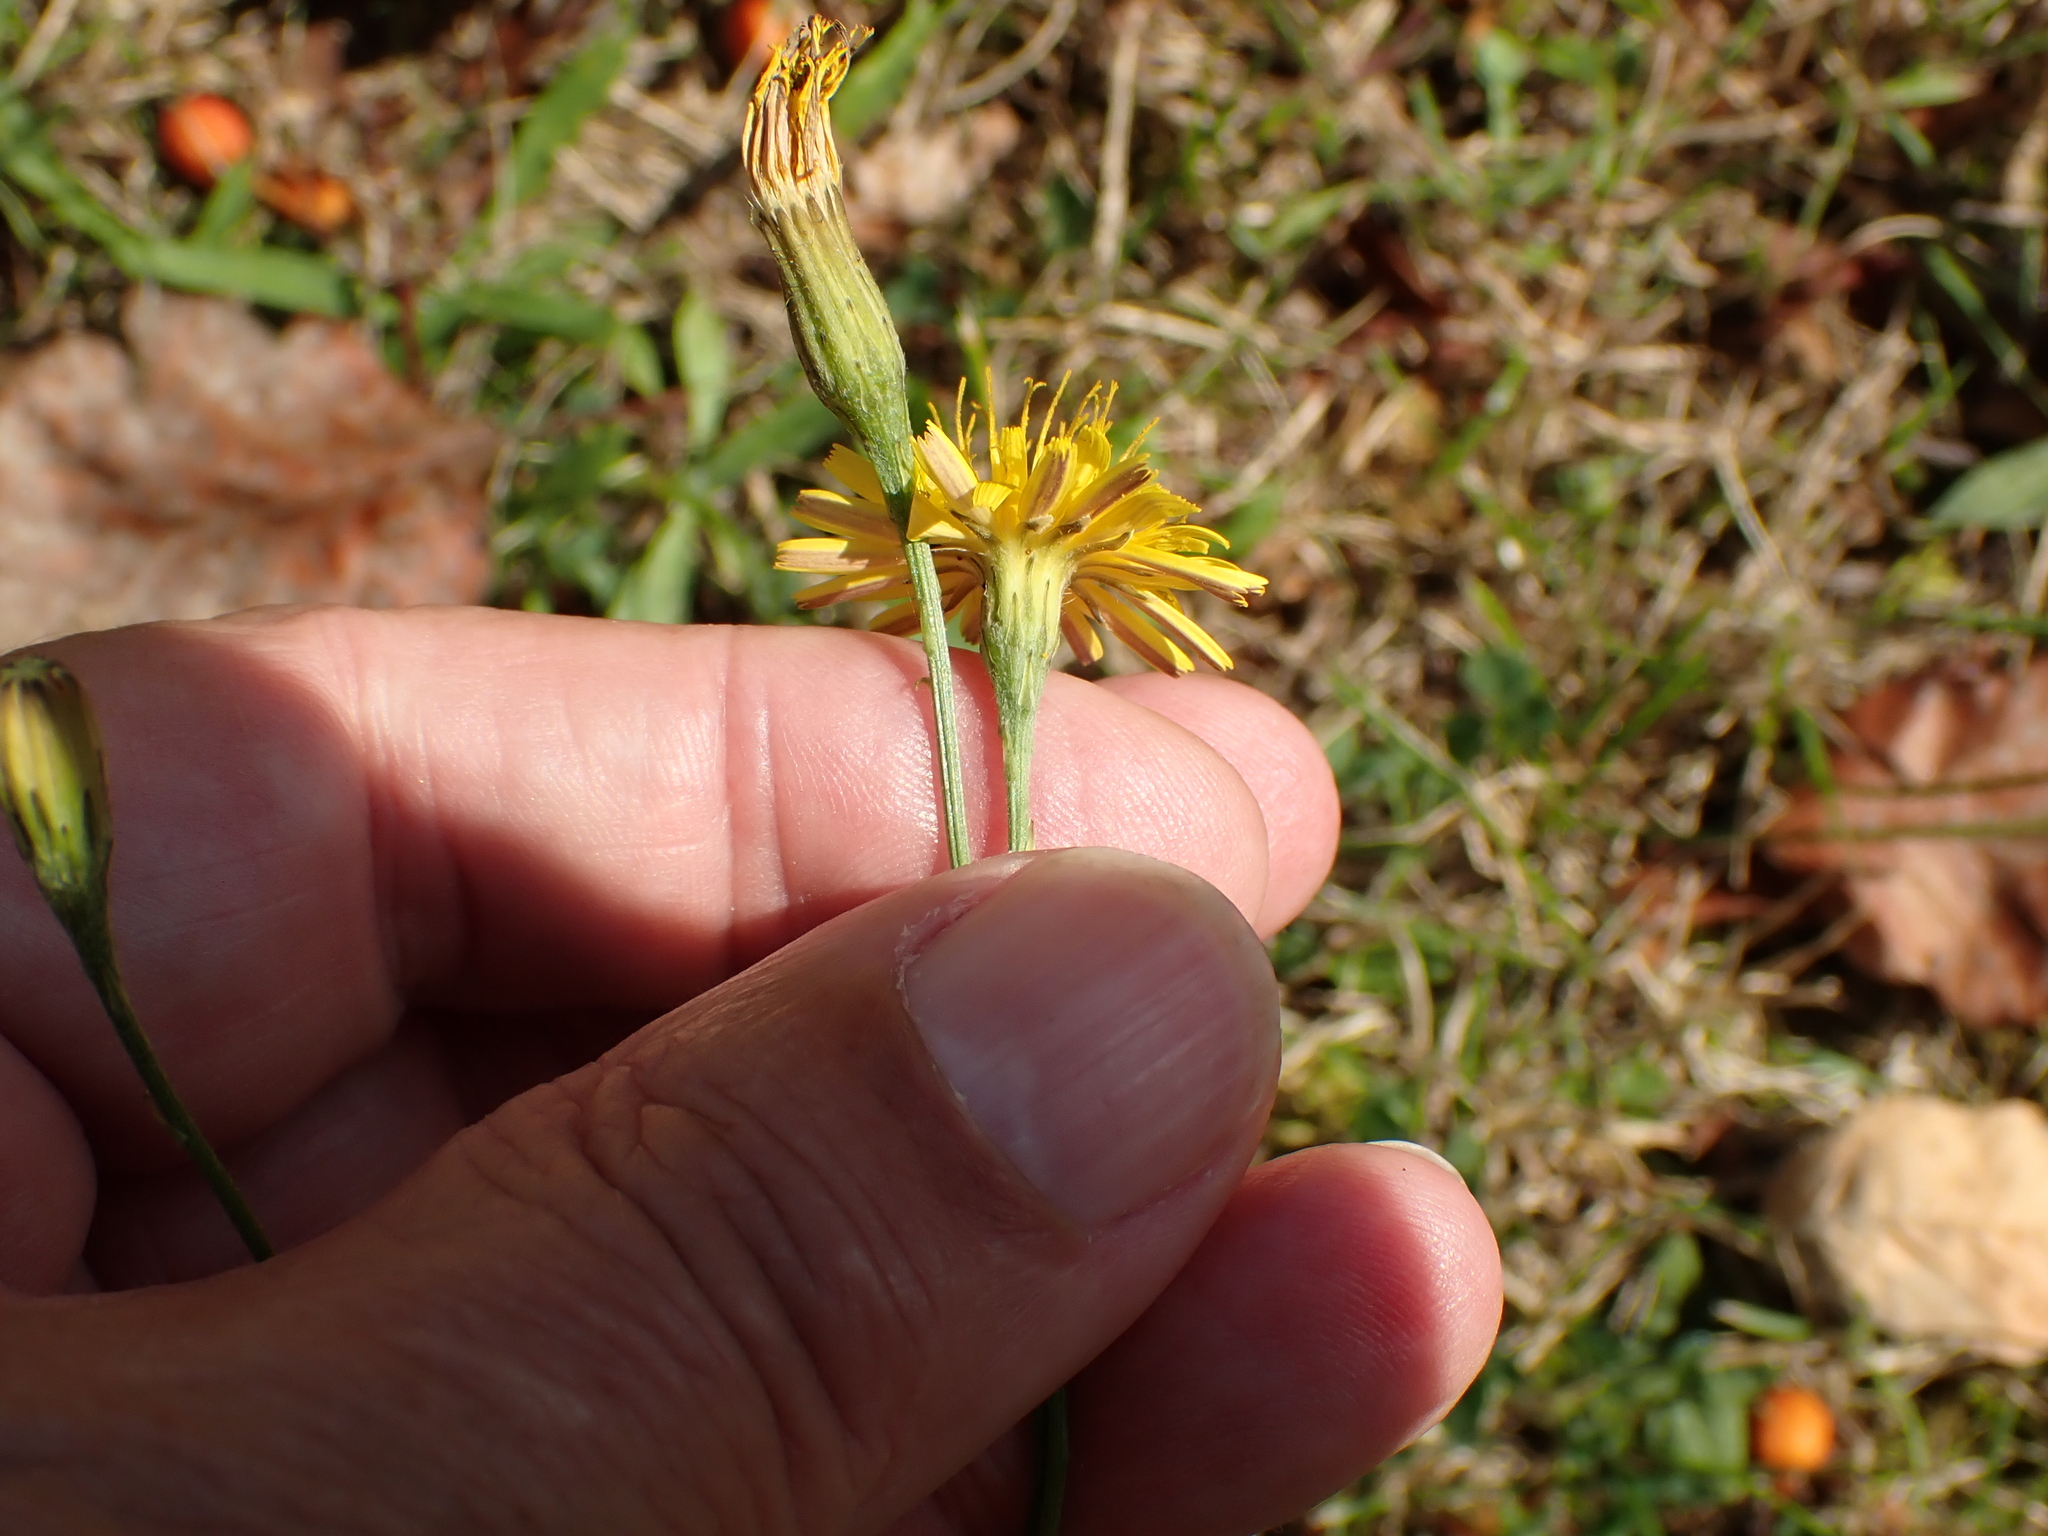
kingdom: Plantae
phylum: Tracheophyta
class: Magnoliopsida
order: Asterales
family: Asteraceae
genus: Scorzoneroides
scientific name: Scorzoneroides autumnalis
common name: Autumn hawkbit
